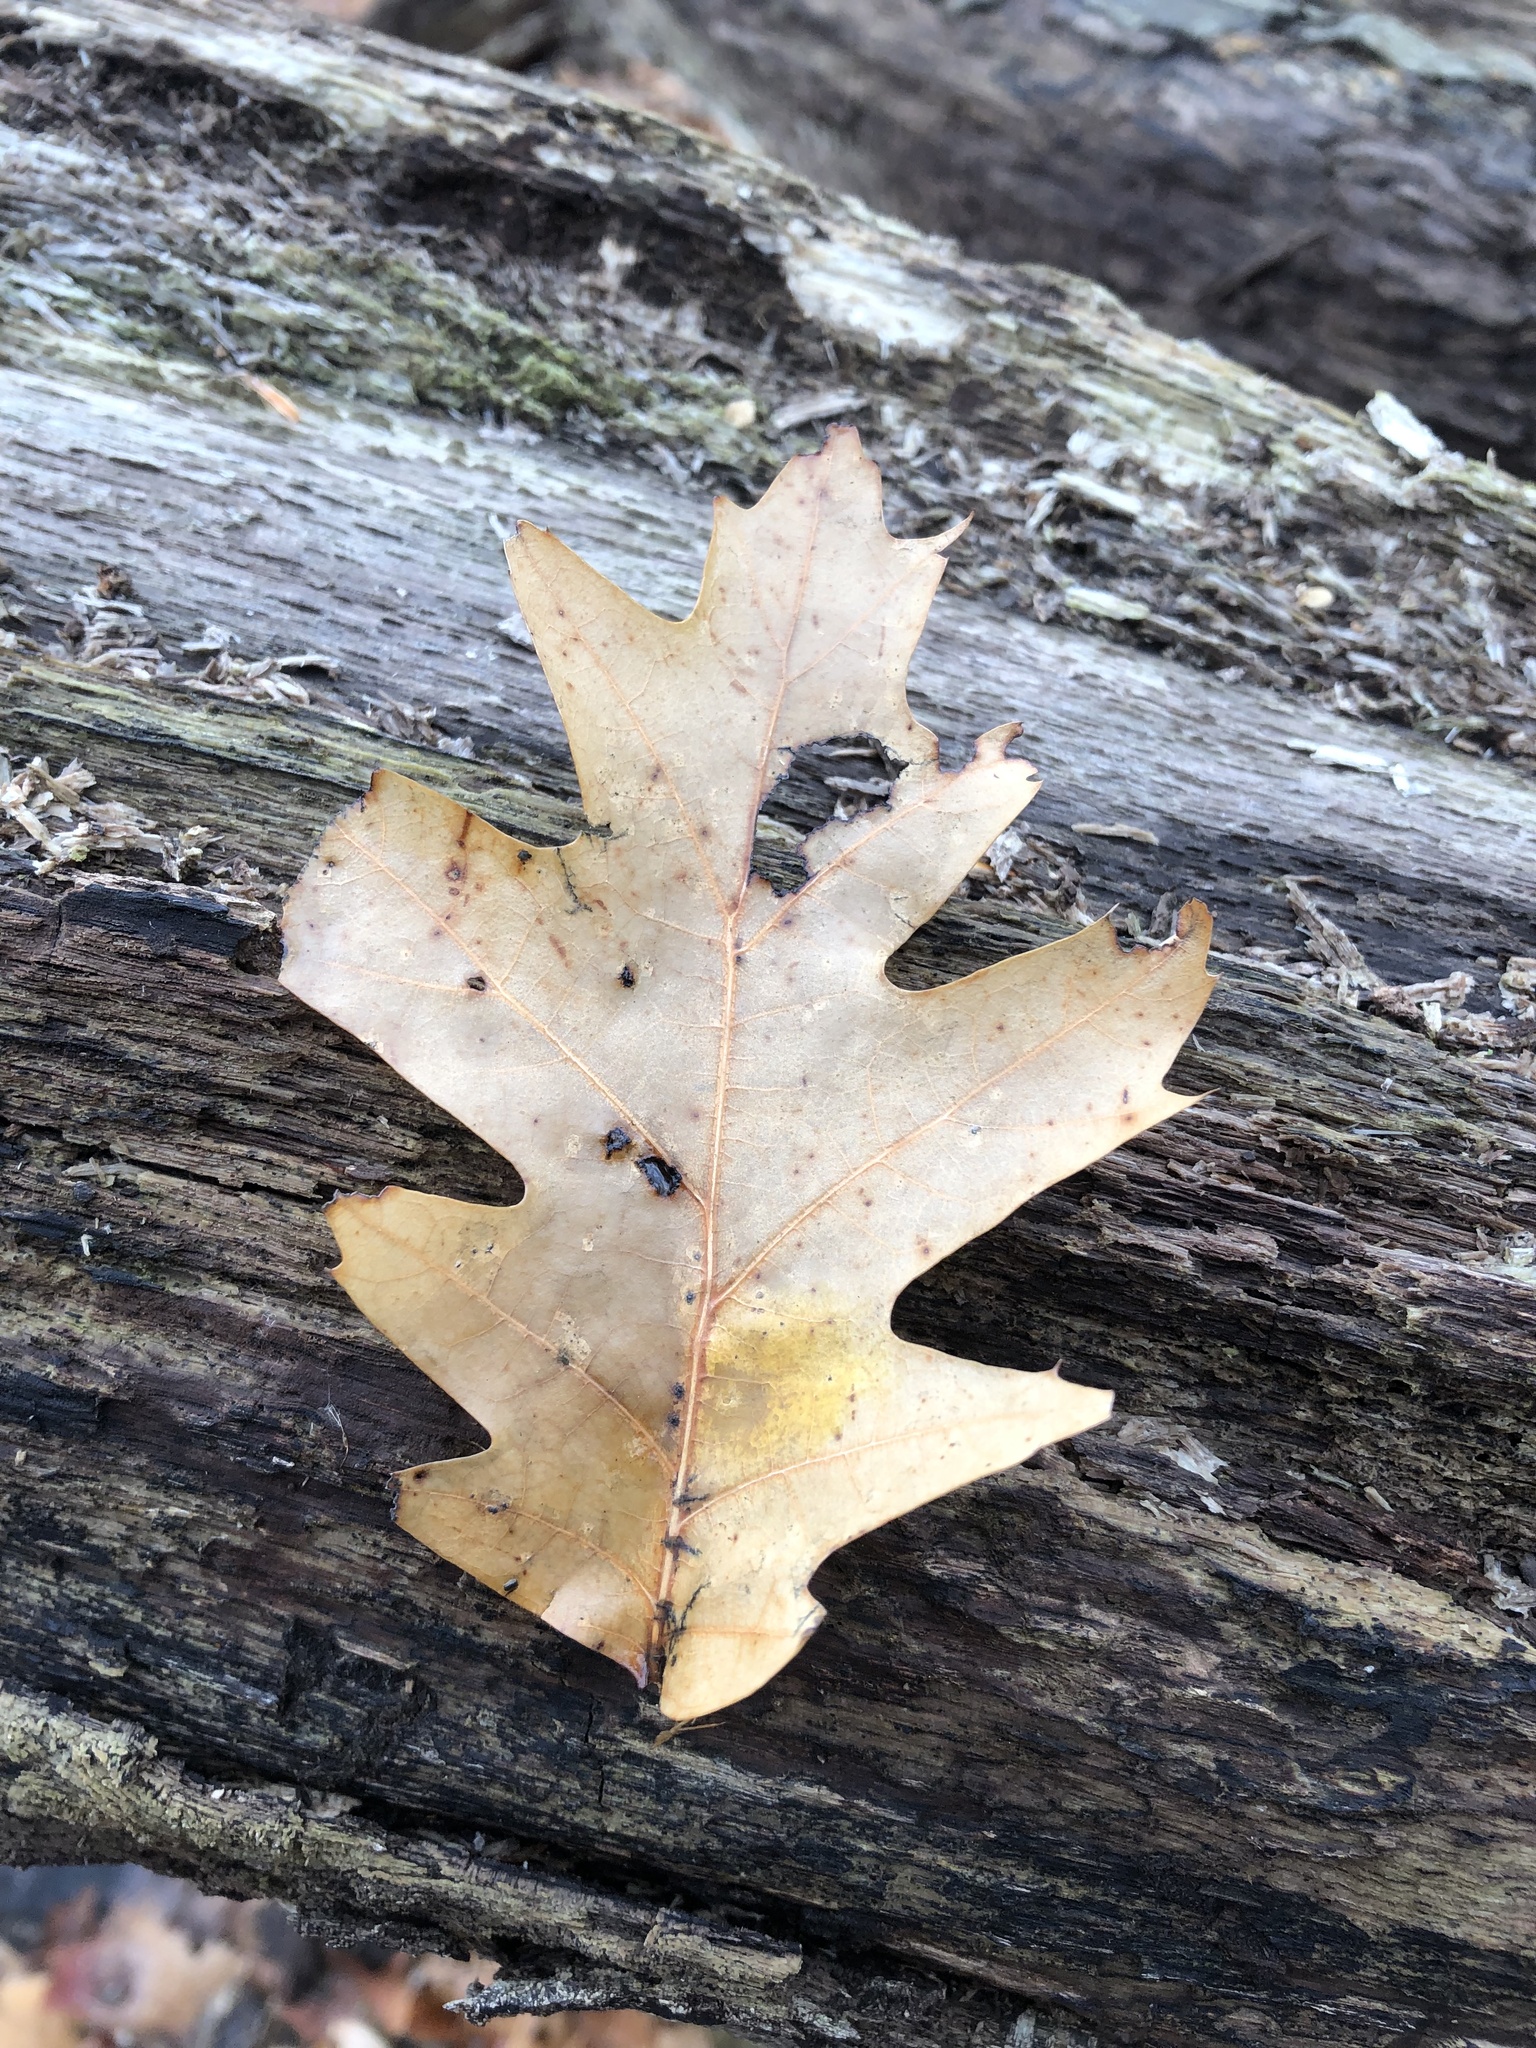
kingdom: Plantae
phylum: Tracheophyta
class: Magnoliopsida
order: Fagales
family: Fagaceae
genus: Quercus
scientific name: Quercus rubra
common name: Red oak
